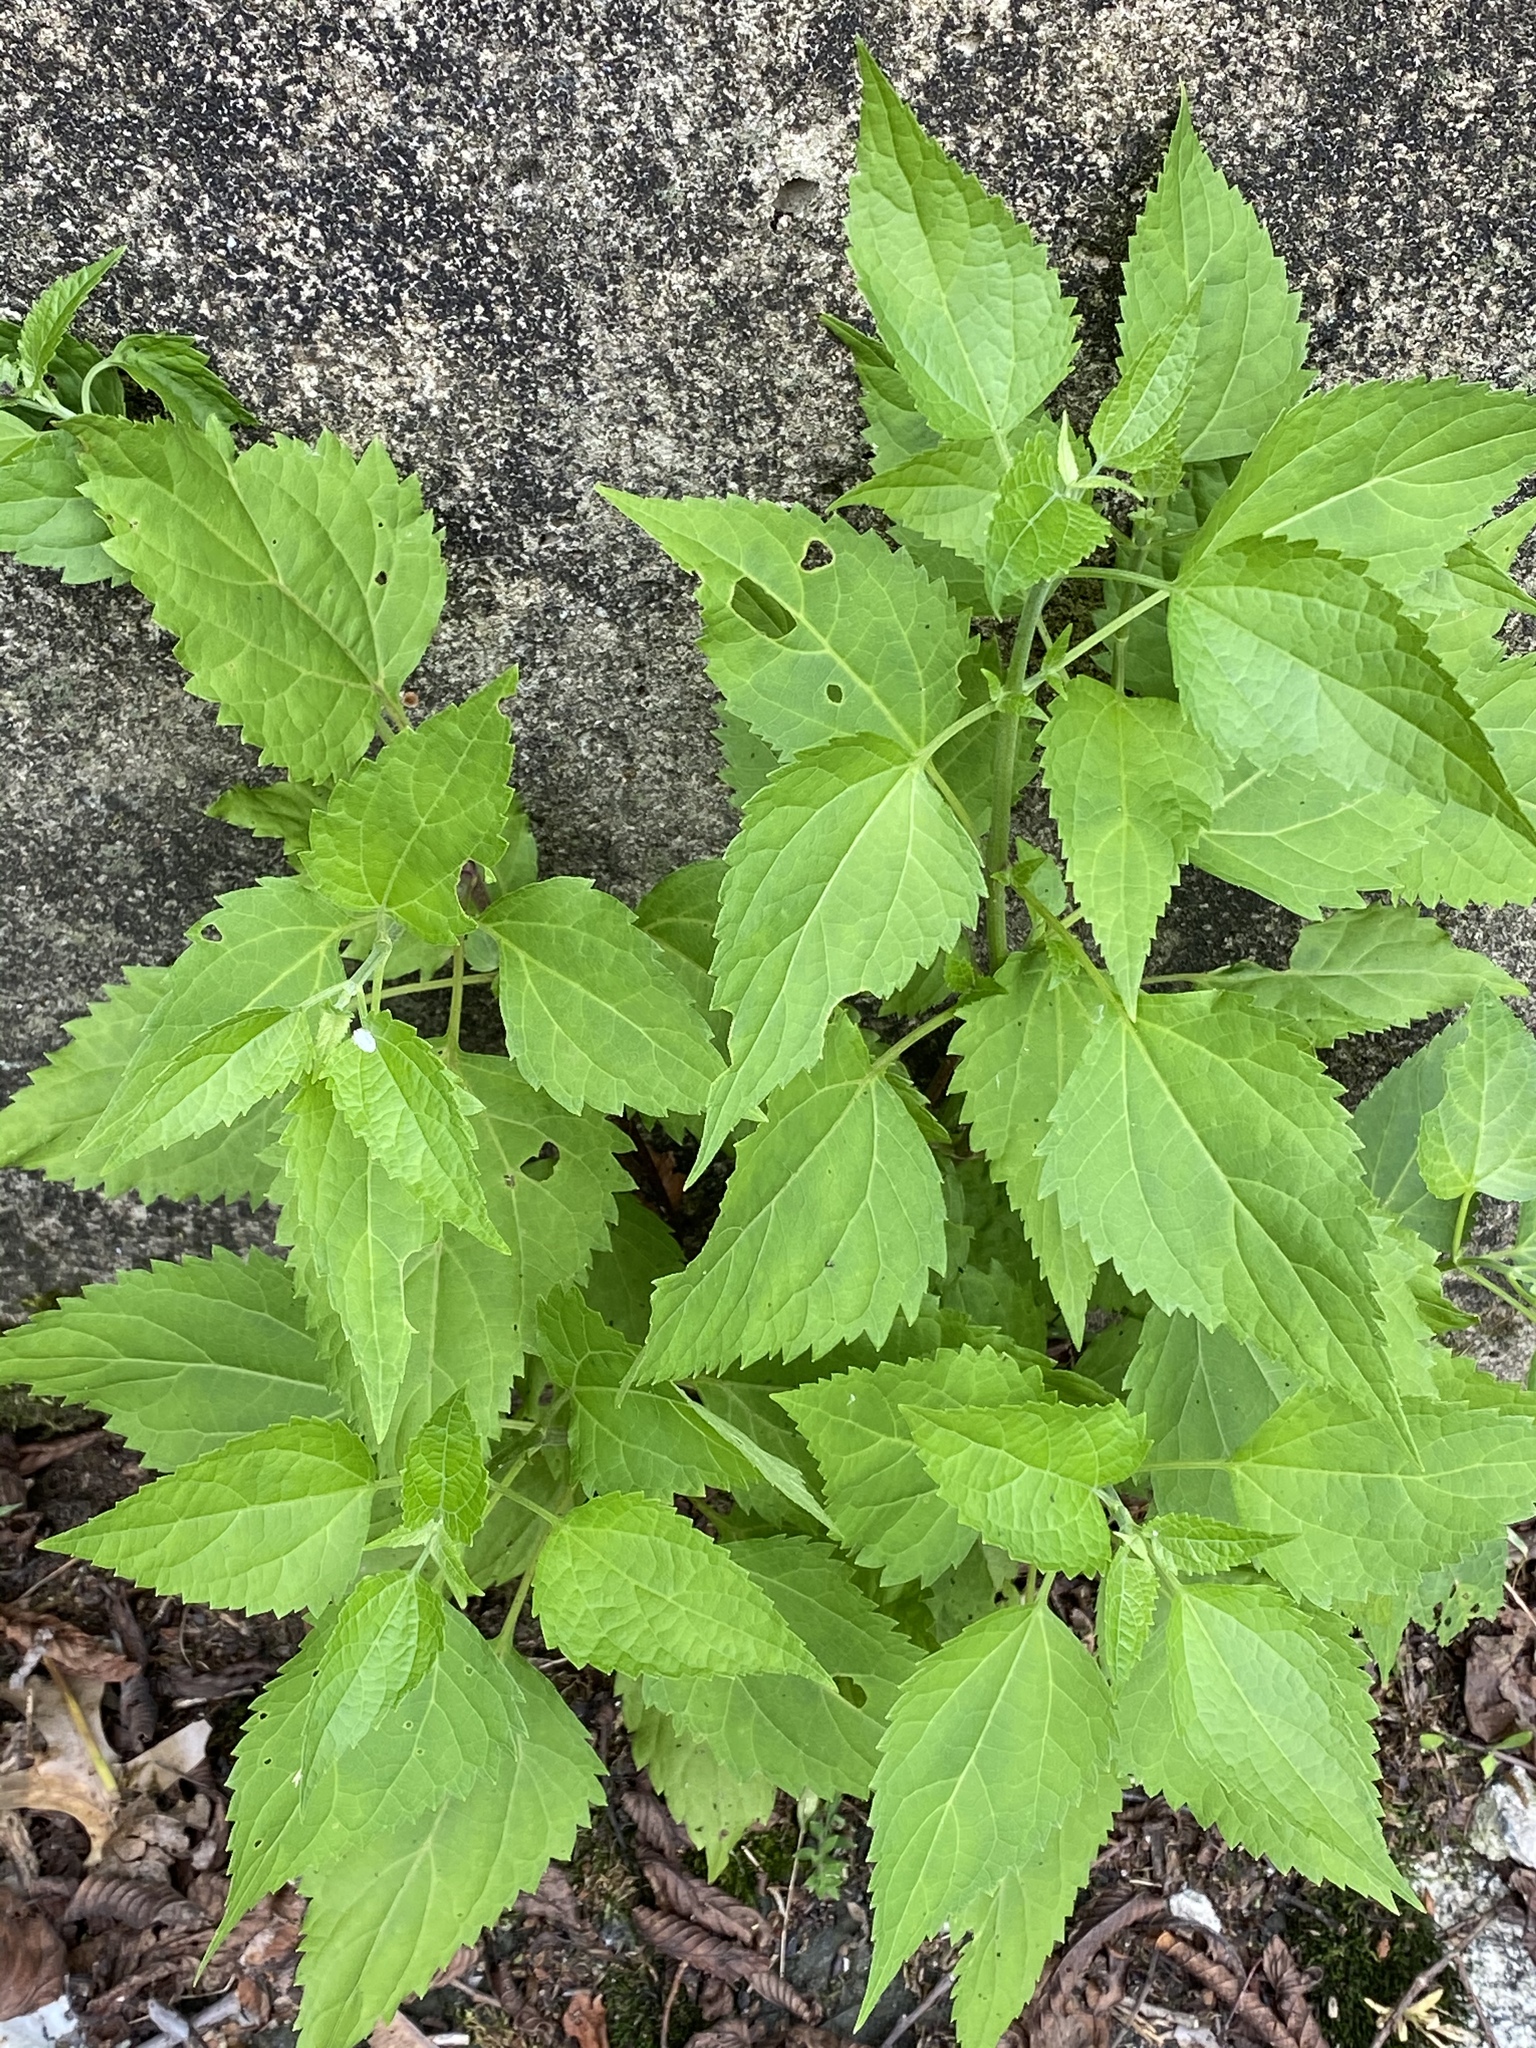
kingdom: Plantae
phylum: Tracheophyta
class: Magnoliopsida
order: Asterales
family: Asteraceae
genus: Ageratina
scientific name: Ageratina altissima
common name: White snakeroot
